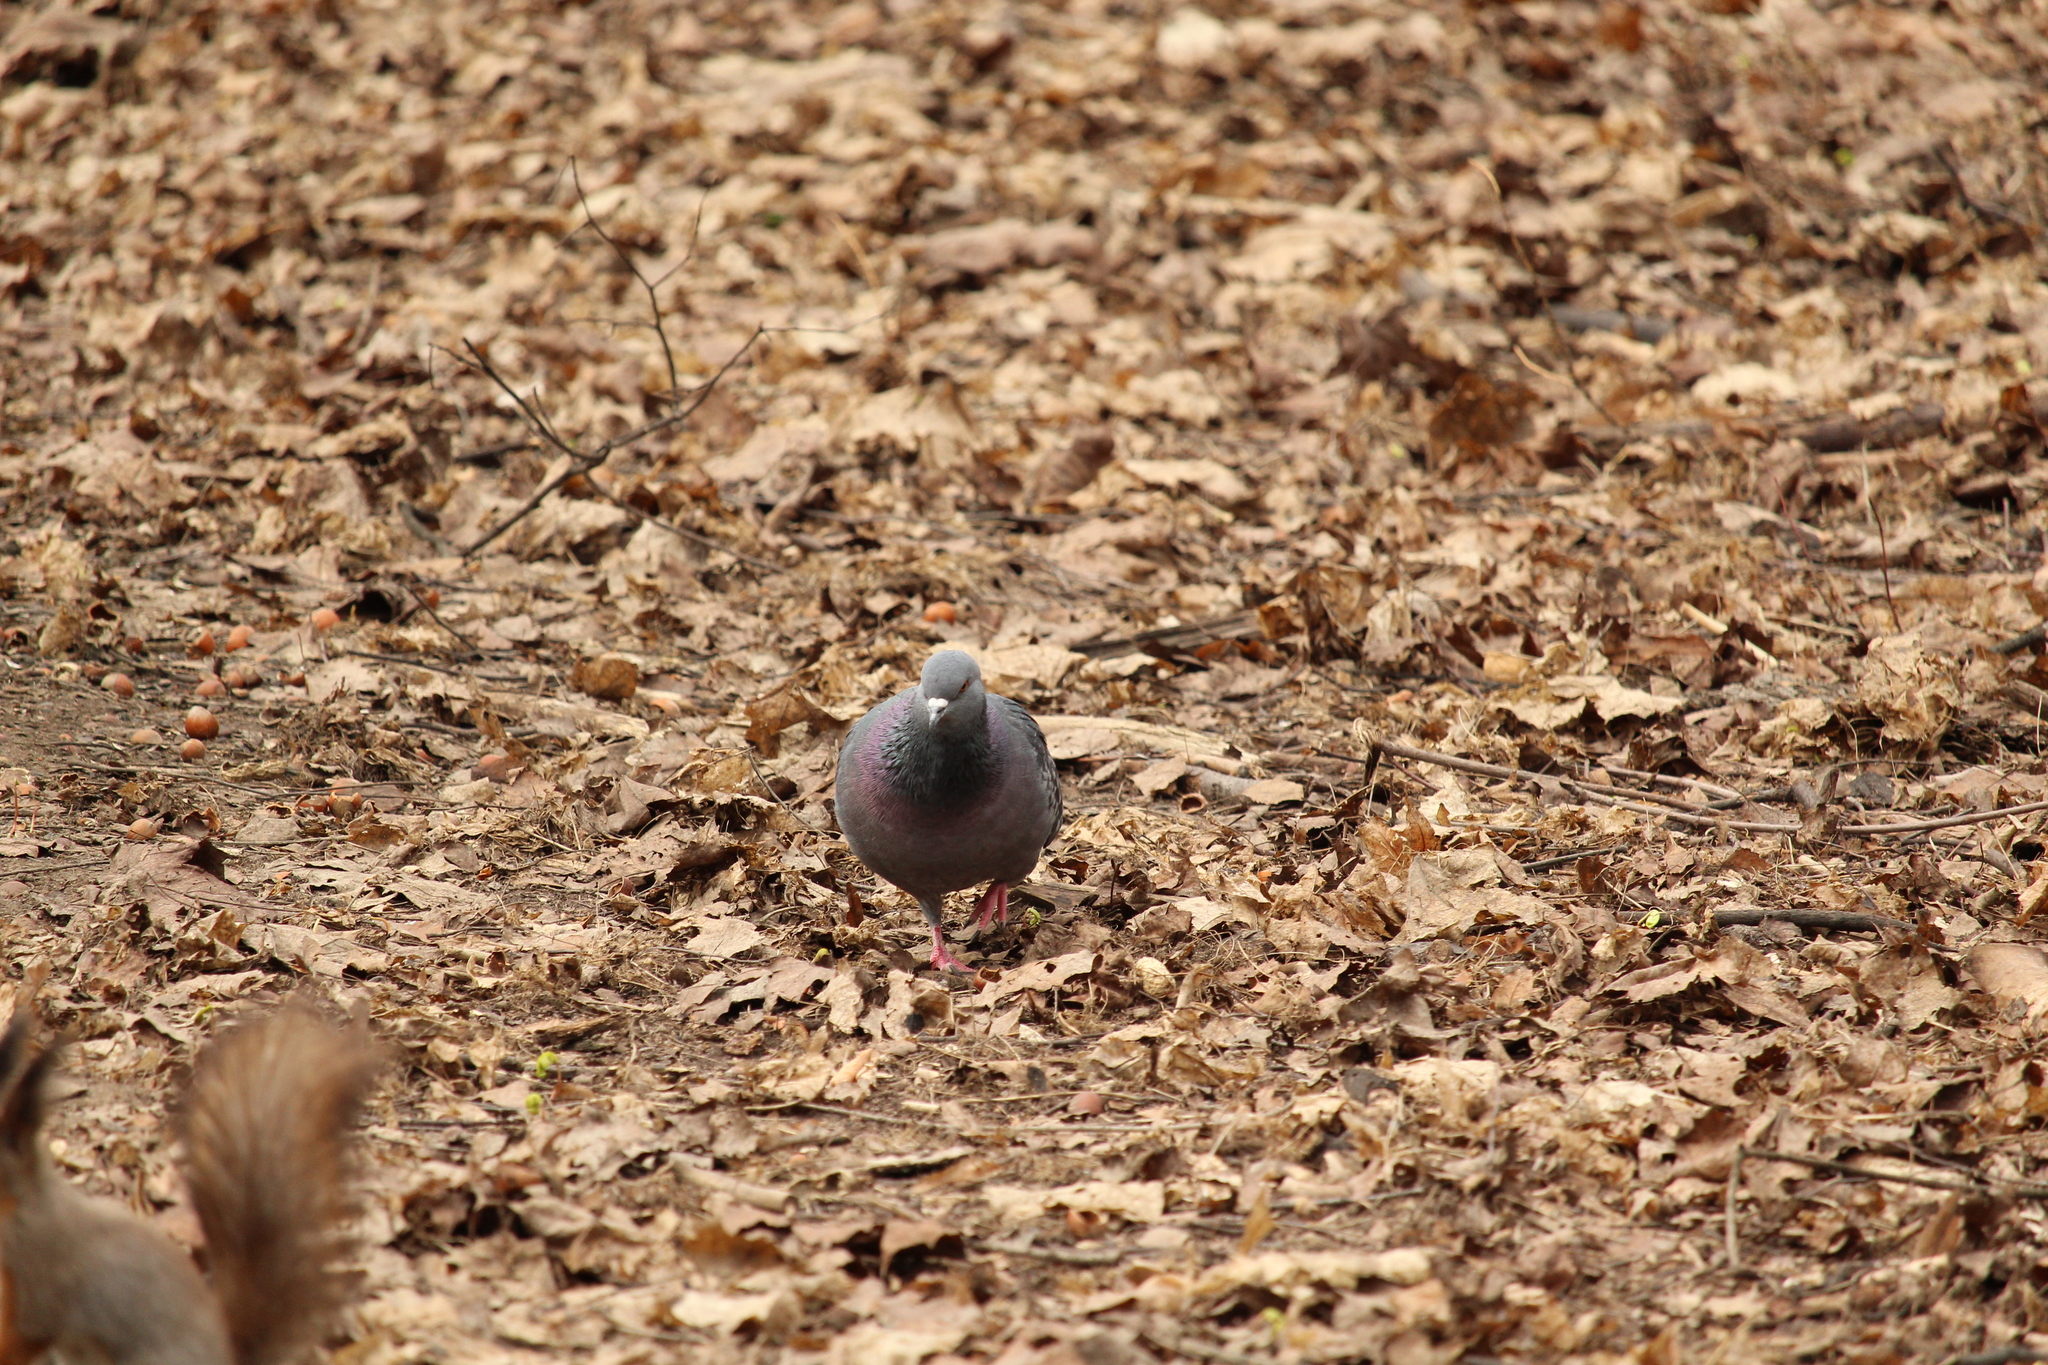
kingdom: Animalia
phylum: Chordata
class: Aves
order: Columbiformes
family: Columbidae
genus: Columba
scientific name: Columba livia
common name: Rock pigeon
